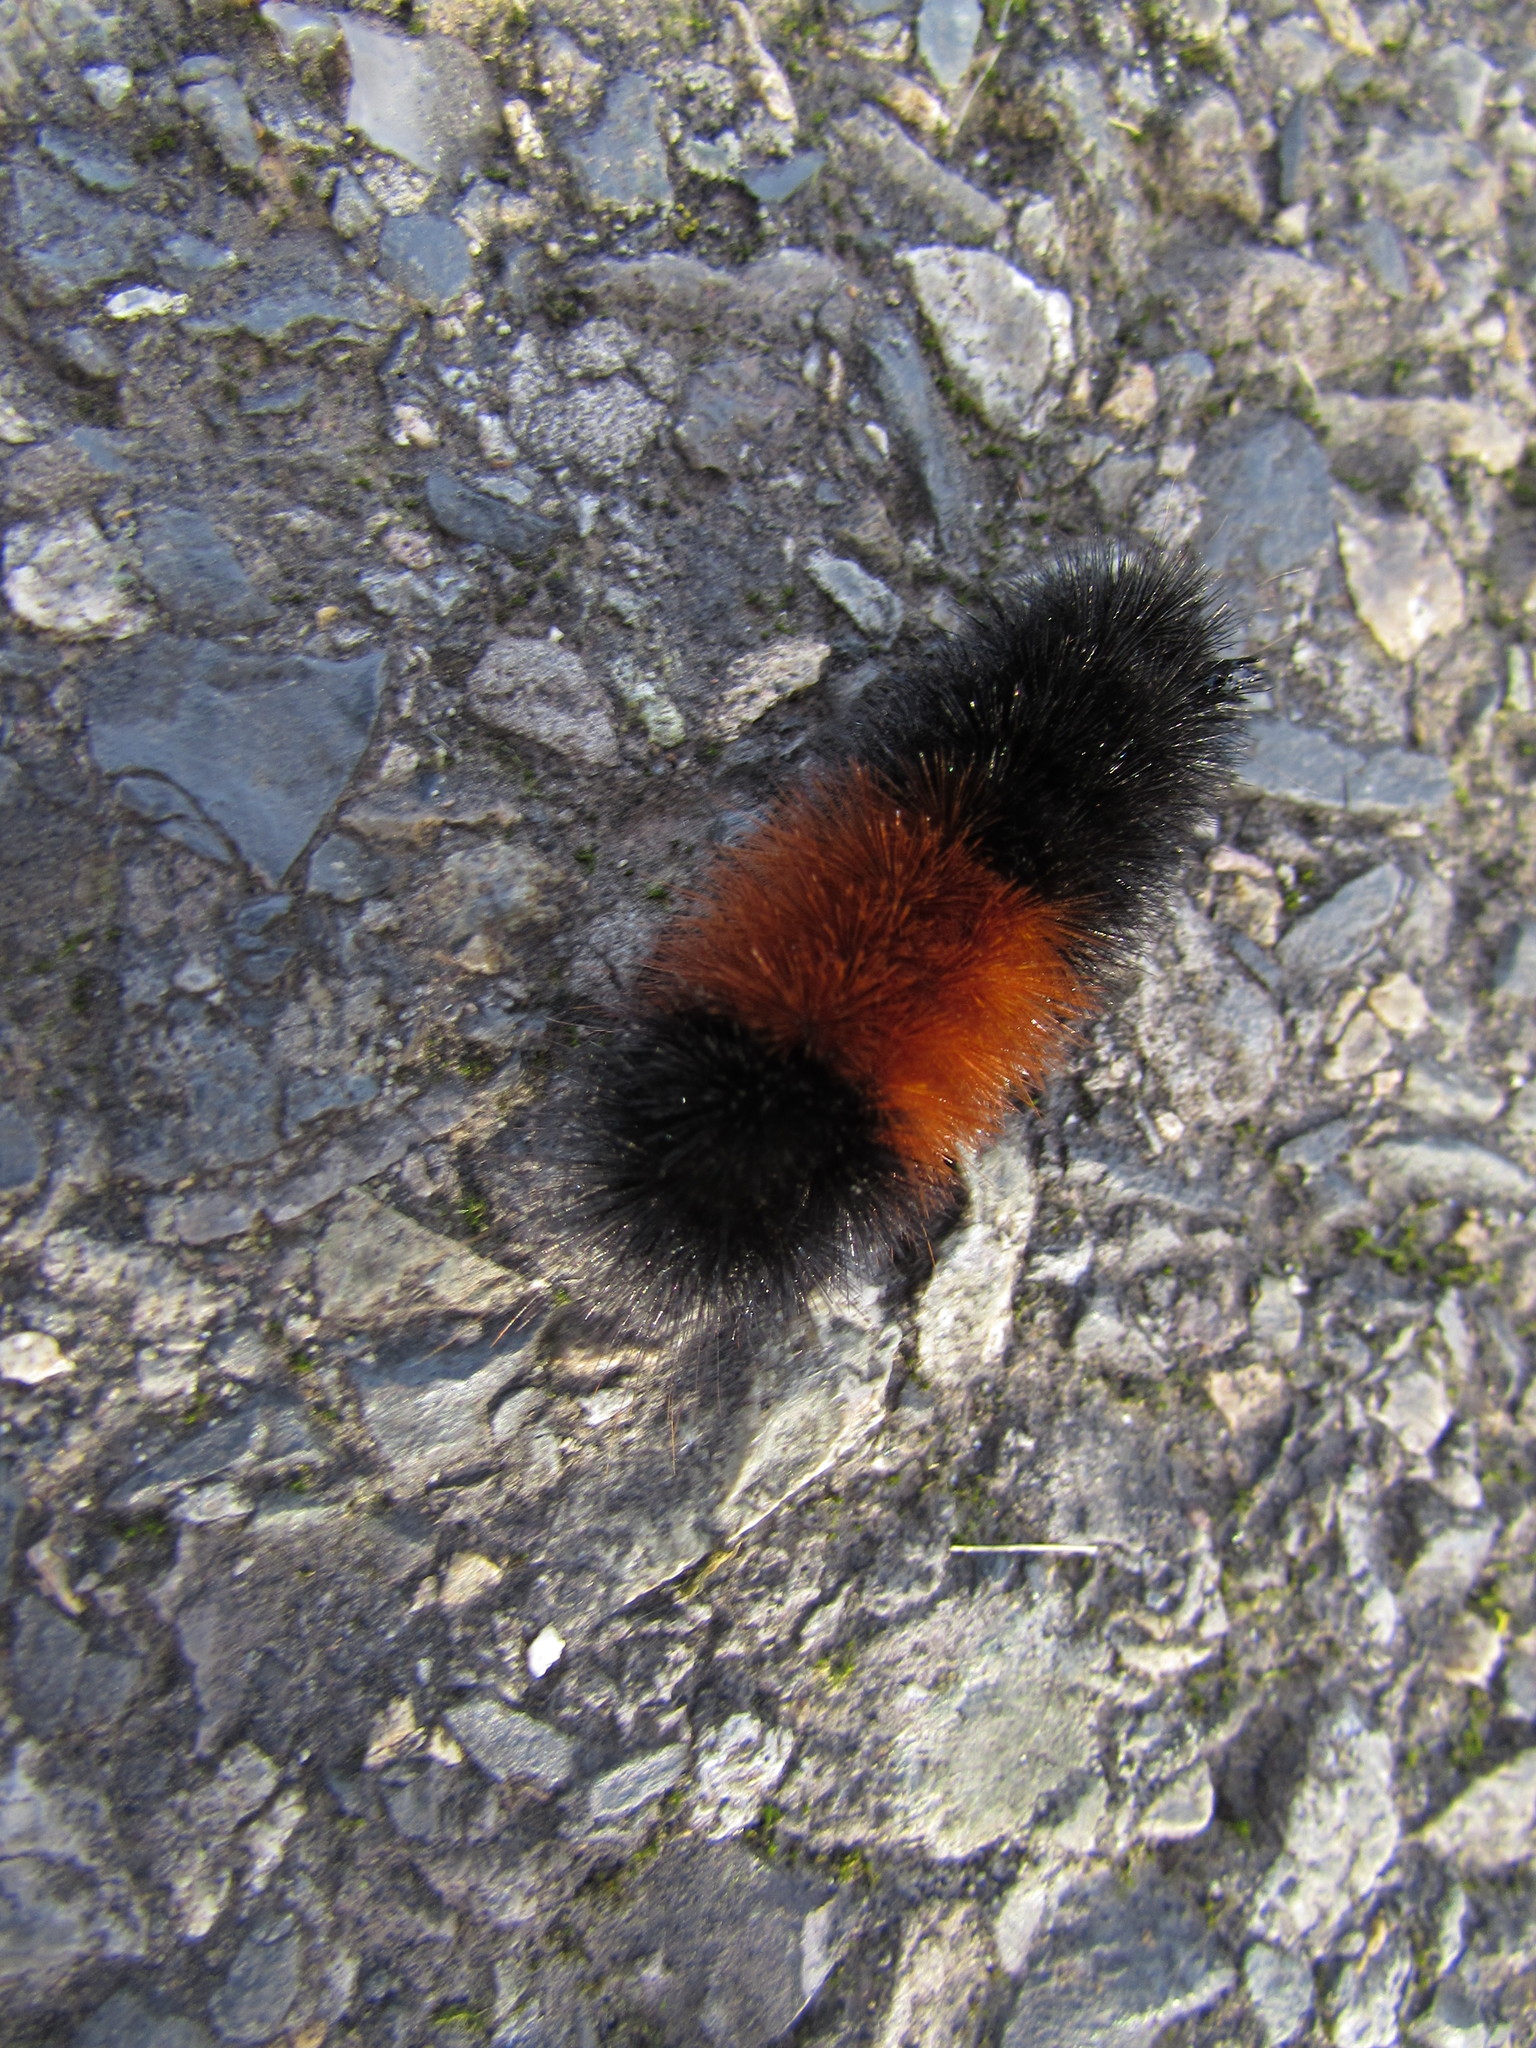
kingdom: Animalia
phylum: Arthropoda
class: Insecta
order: Lepidoptera
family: Erebidae
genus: Pyrrharctia
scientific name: Pyrrharctia isabella
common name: Isabella tiger moth
